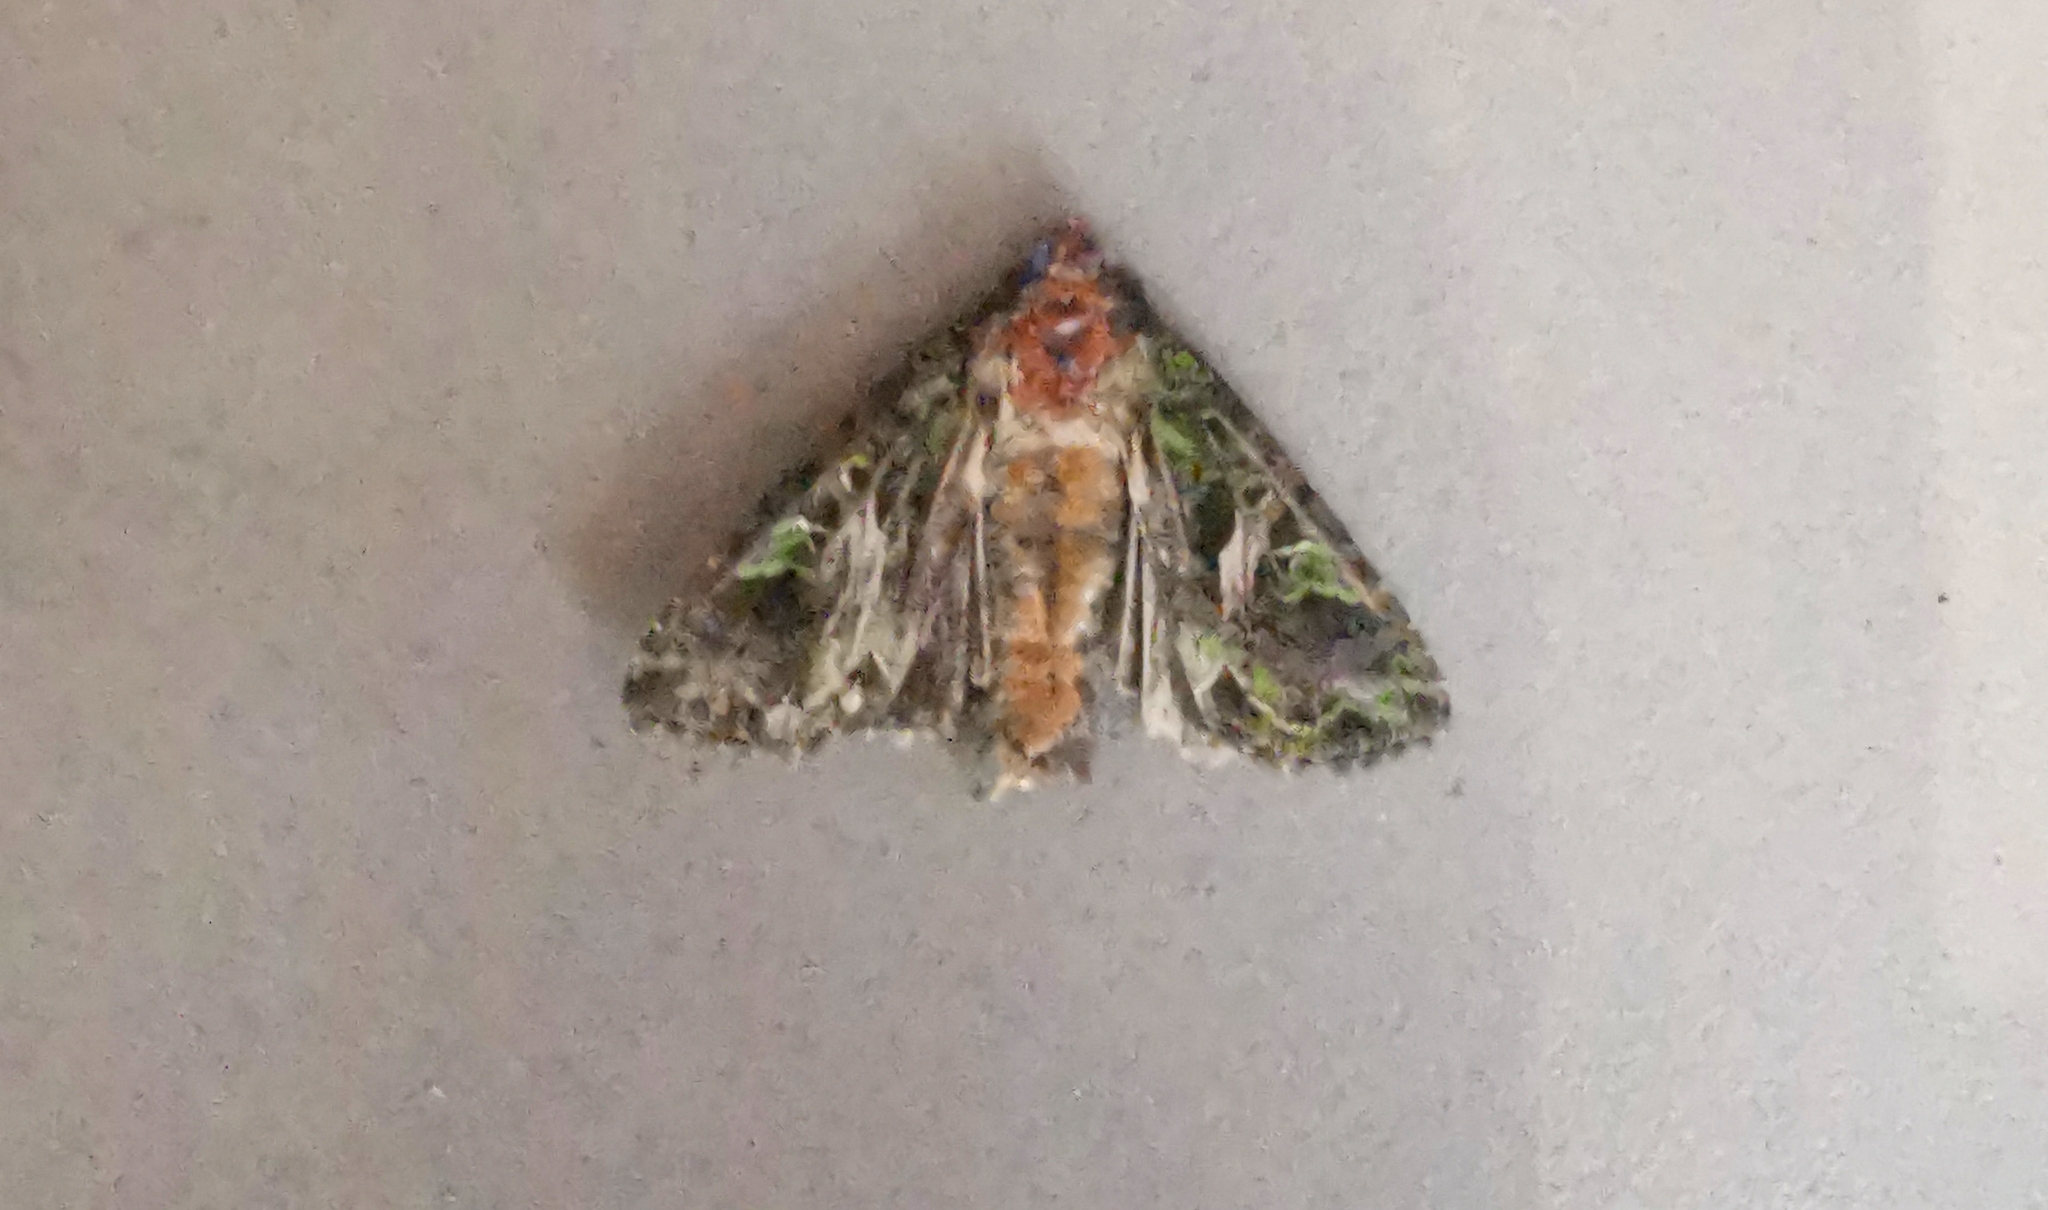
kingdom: Animalia
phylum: Arthropoda
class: Insecta
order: Lepidoptera
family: Noctuidae
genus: Trachea
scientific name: Trachea atriplicis
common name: Orache moth
